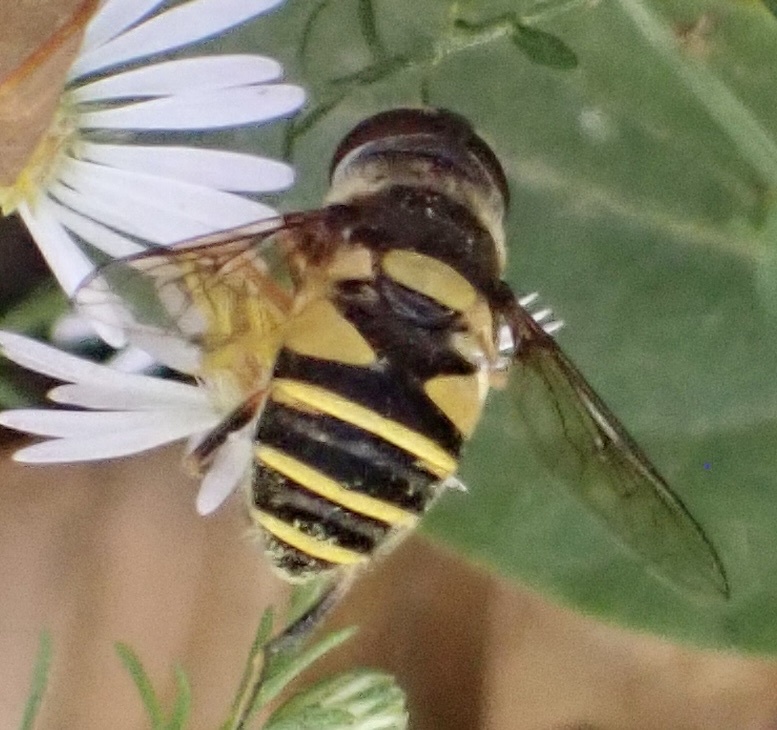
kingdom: Animalia
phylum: Arthropoda
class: Insecta
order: Diptera
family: Syrphidae
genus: Eristalis
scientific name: Eristalis transversa
